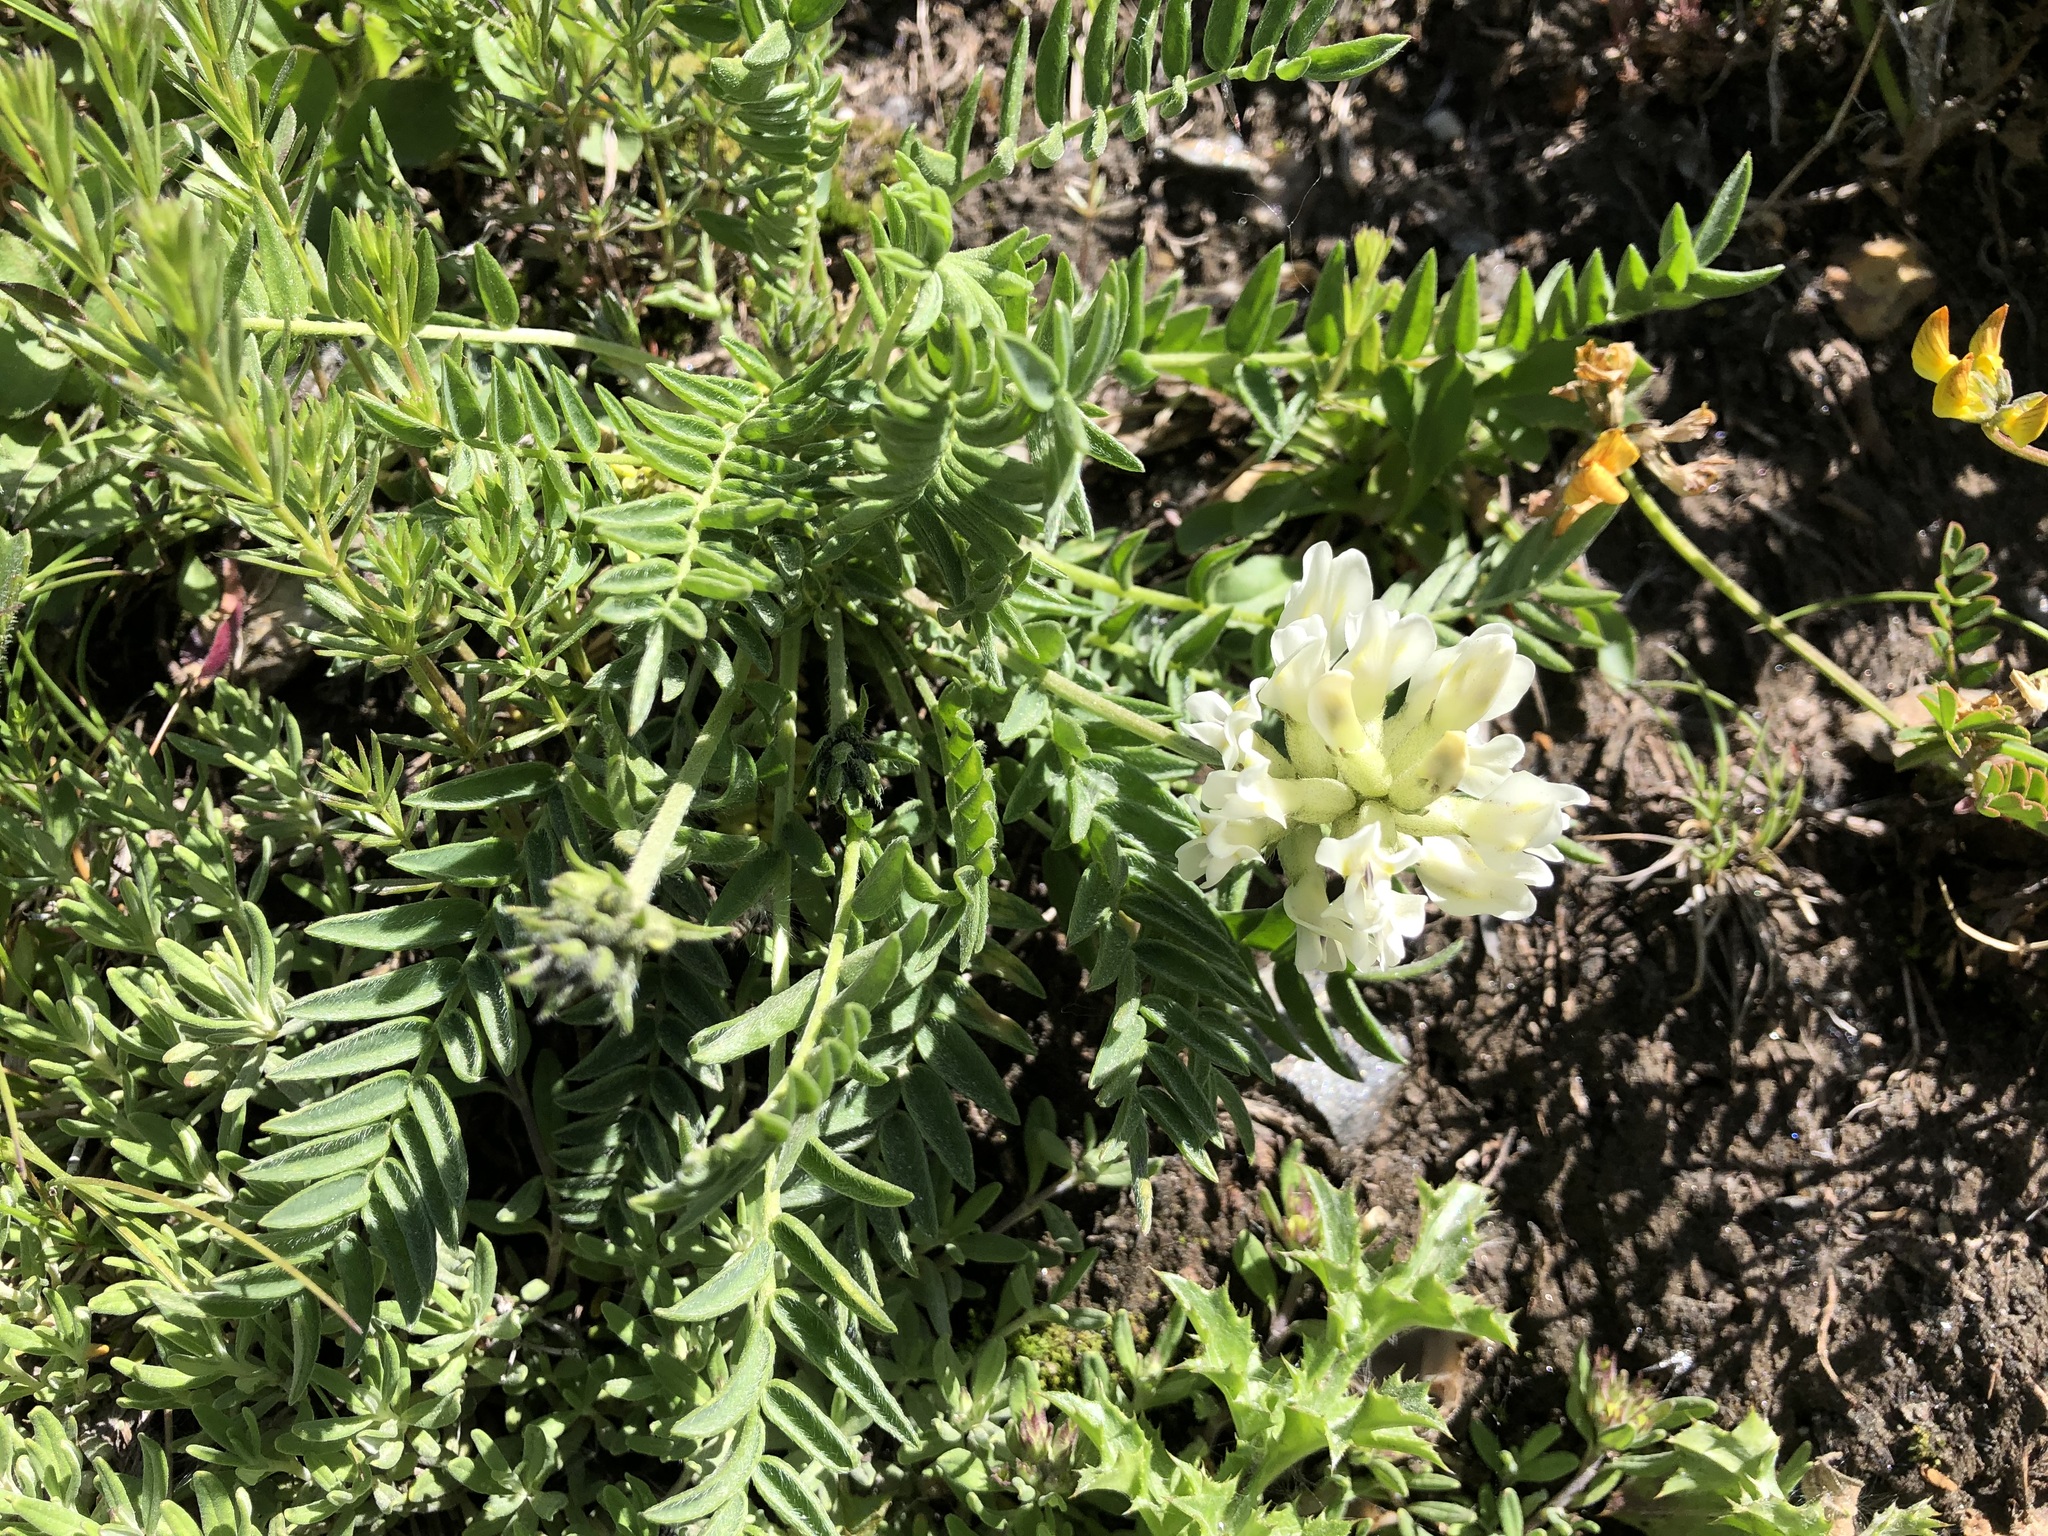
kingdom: Plantae
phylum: Tracheophyta
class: Magnoliopsida
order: Fabales
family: Fabaceae
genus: Oxytropis
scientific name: Oxytropis campestris
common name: Field locoweed
